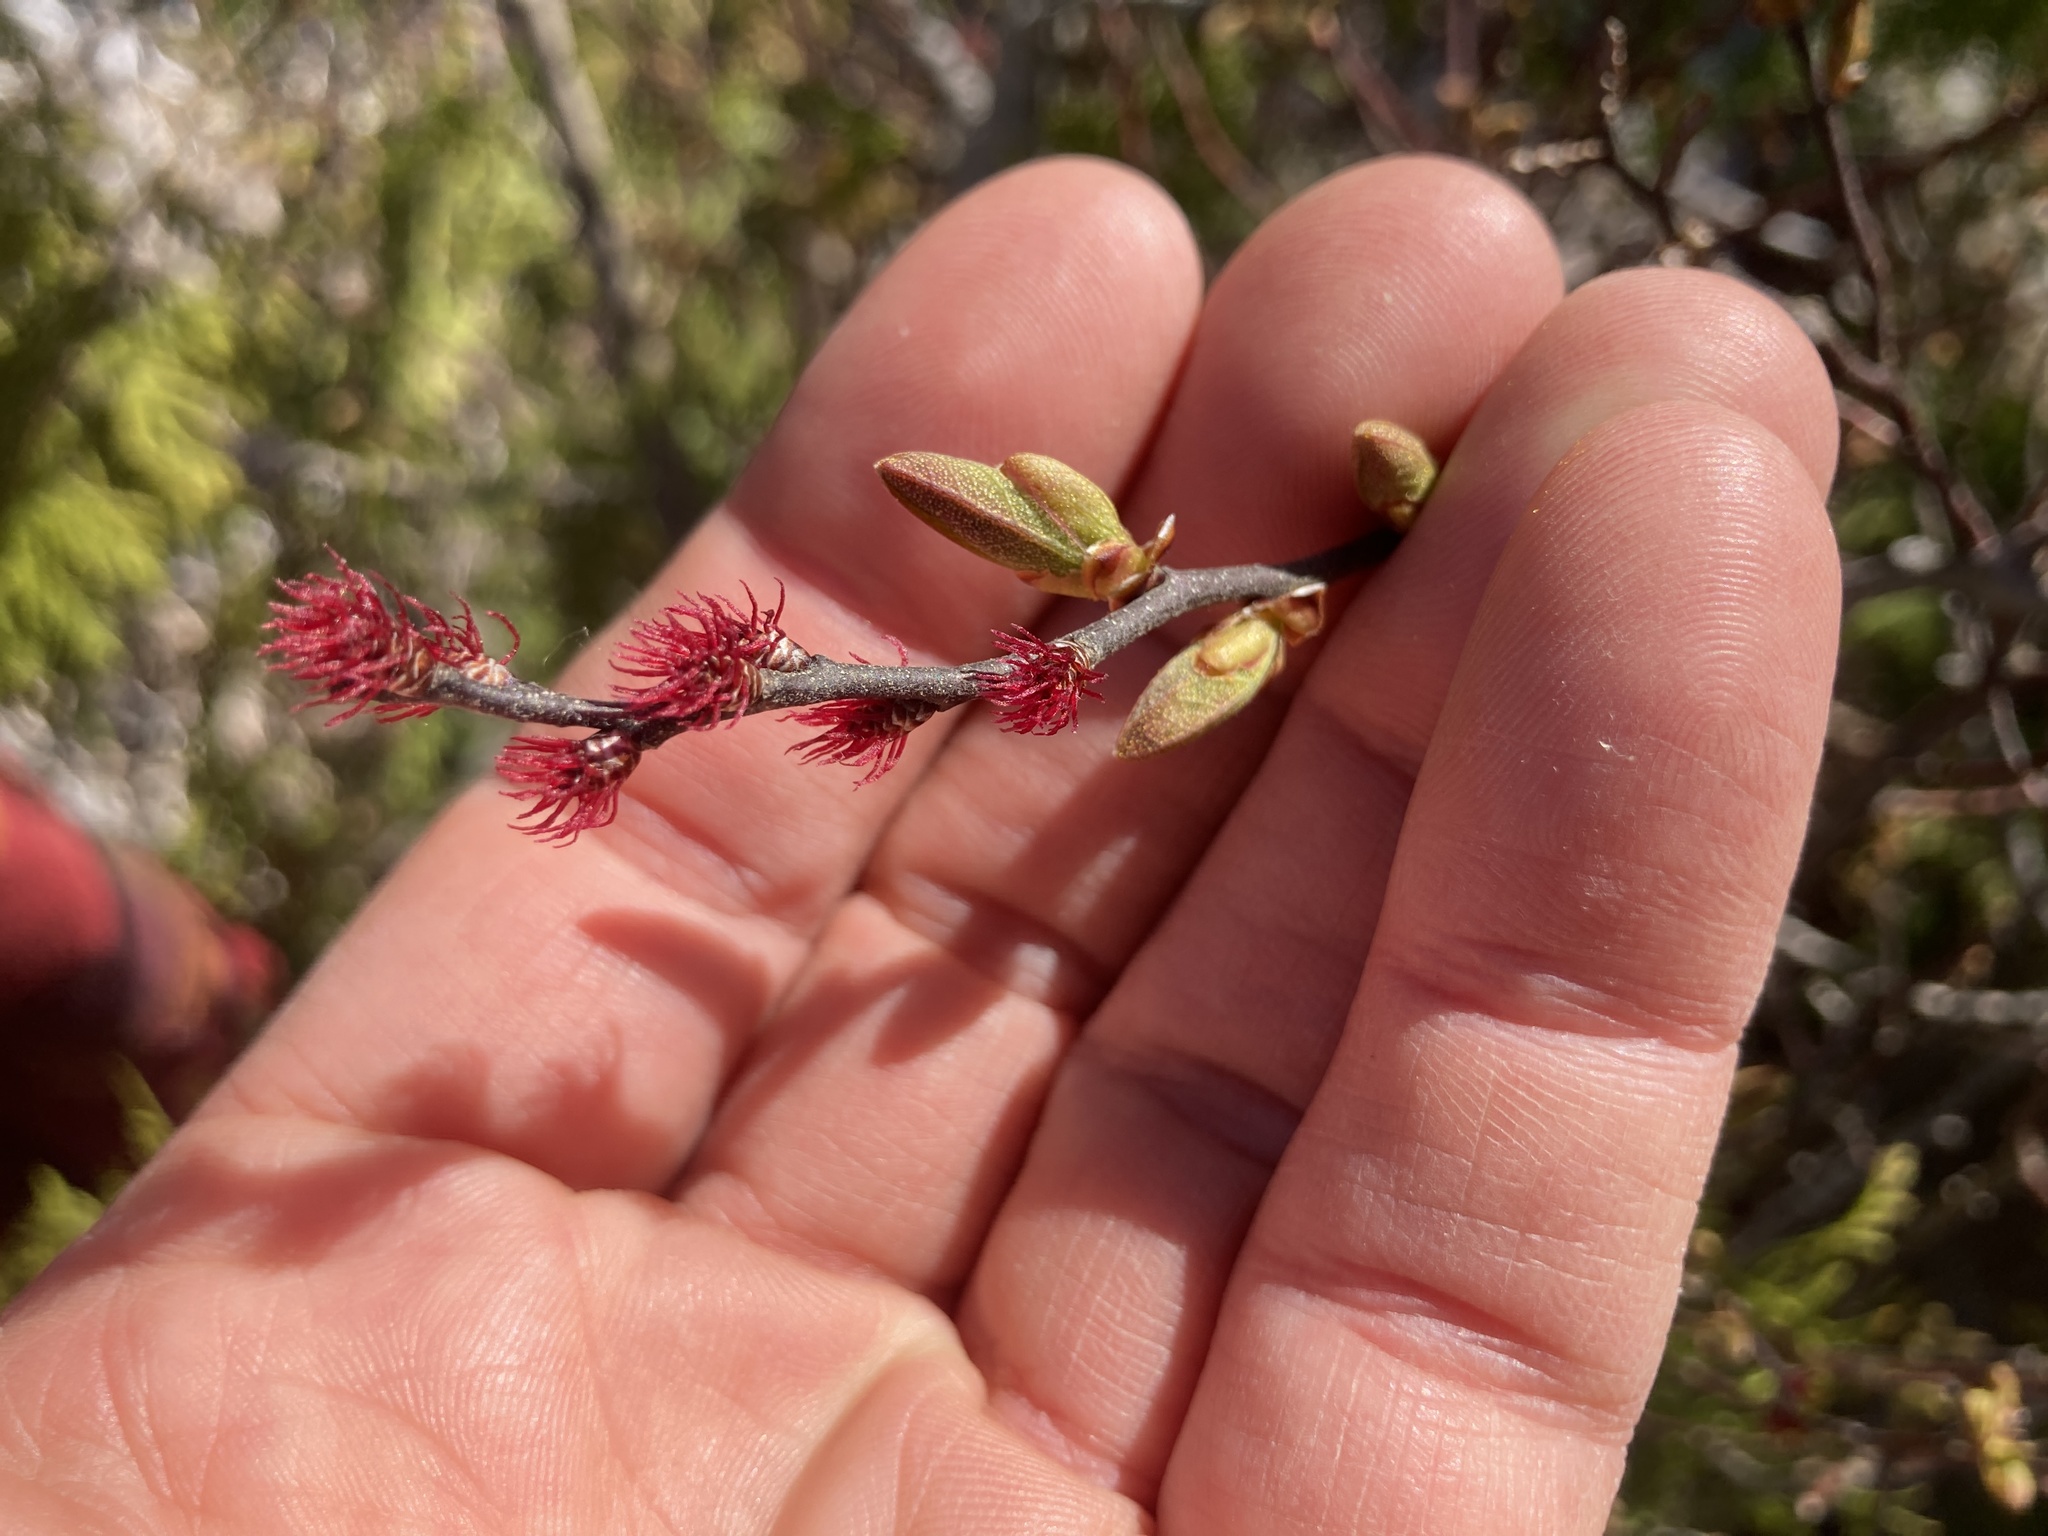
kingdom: Plantae
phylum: Tracheophyta
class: Magnoliopsida
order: Fagales
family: Myricaceae
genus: Myrica
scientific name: Myrica gale
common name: Sweet gale
